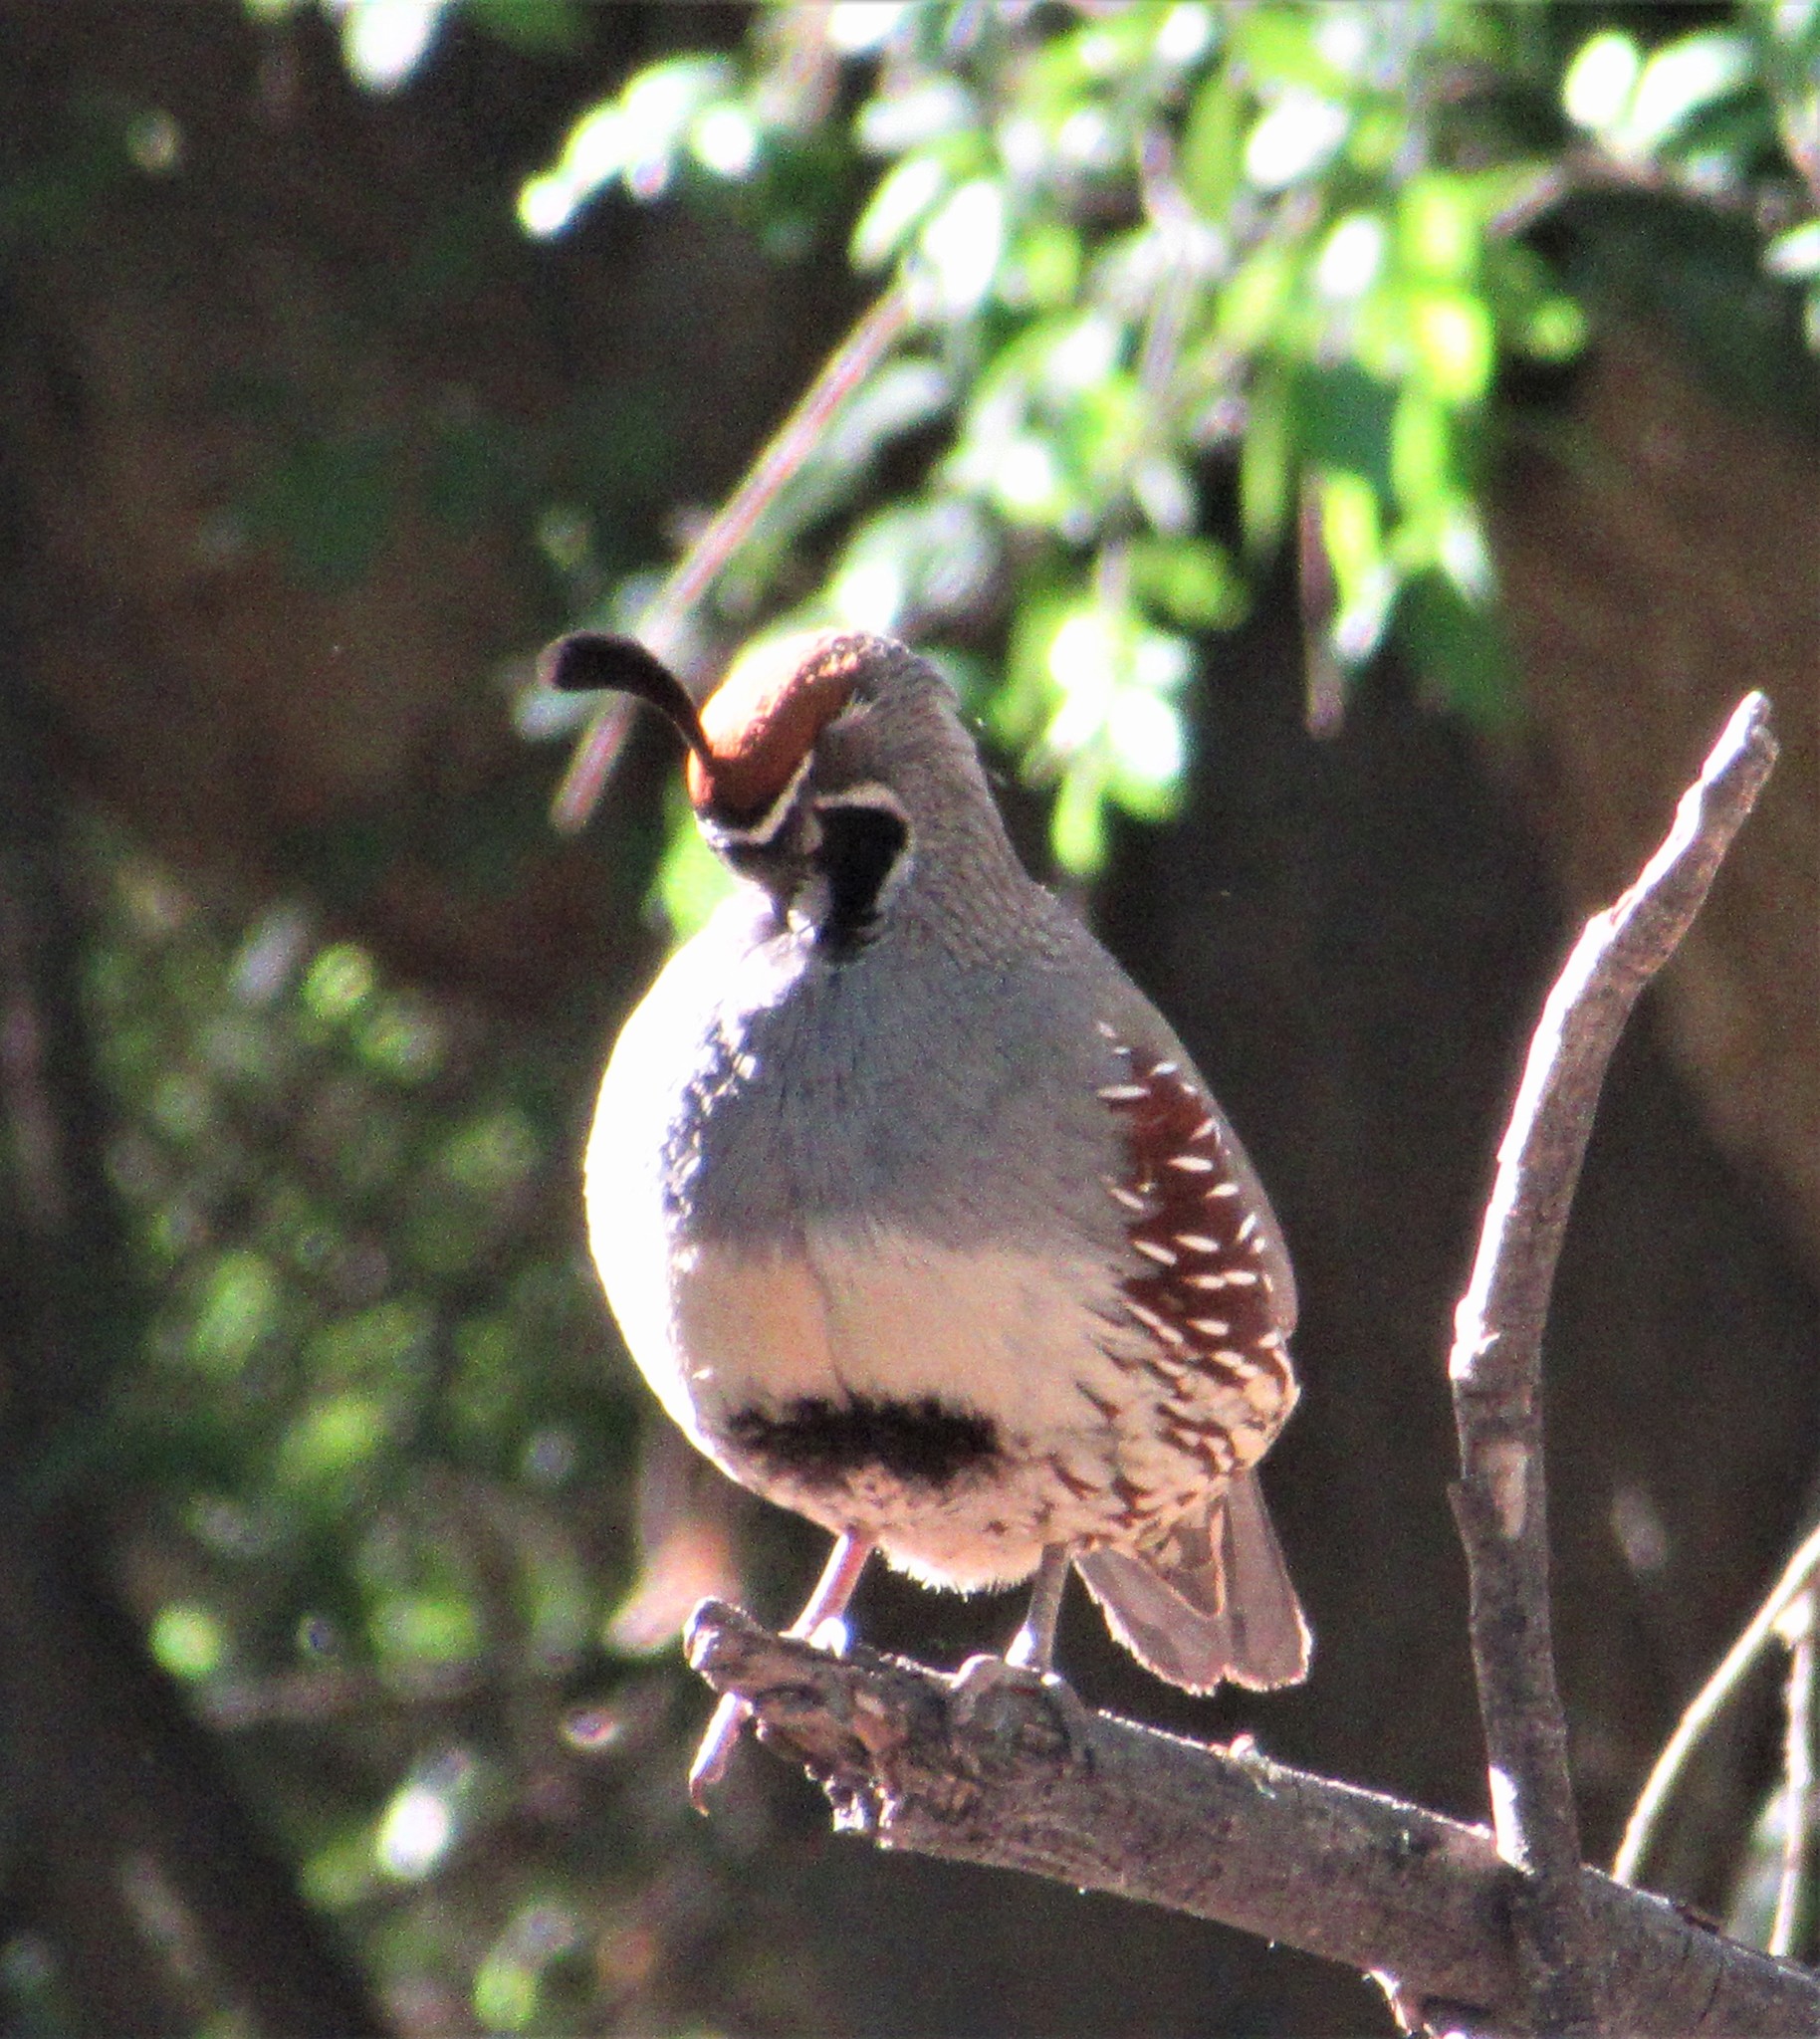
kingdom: Animalia
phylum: Chordata
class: Aves
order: Galliformes
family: Odontophoridae
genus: Callipepla
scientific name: Callipepla gambelii
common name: Gambel's quail
